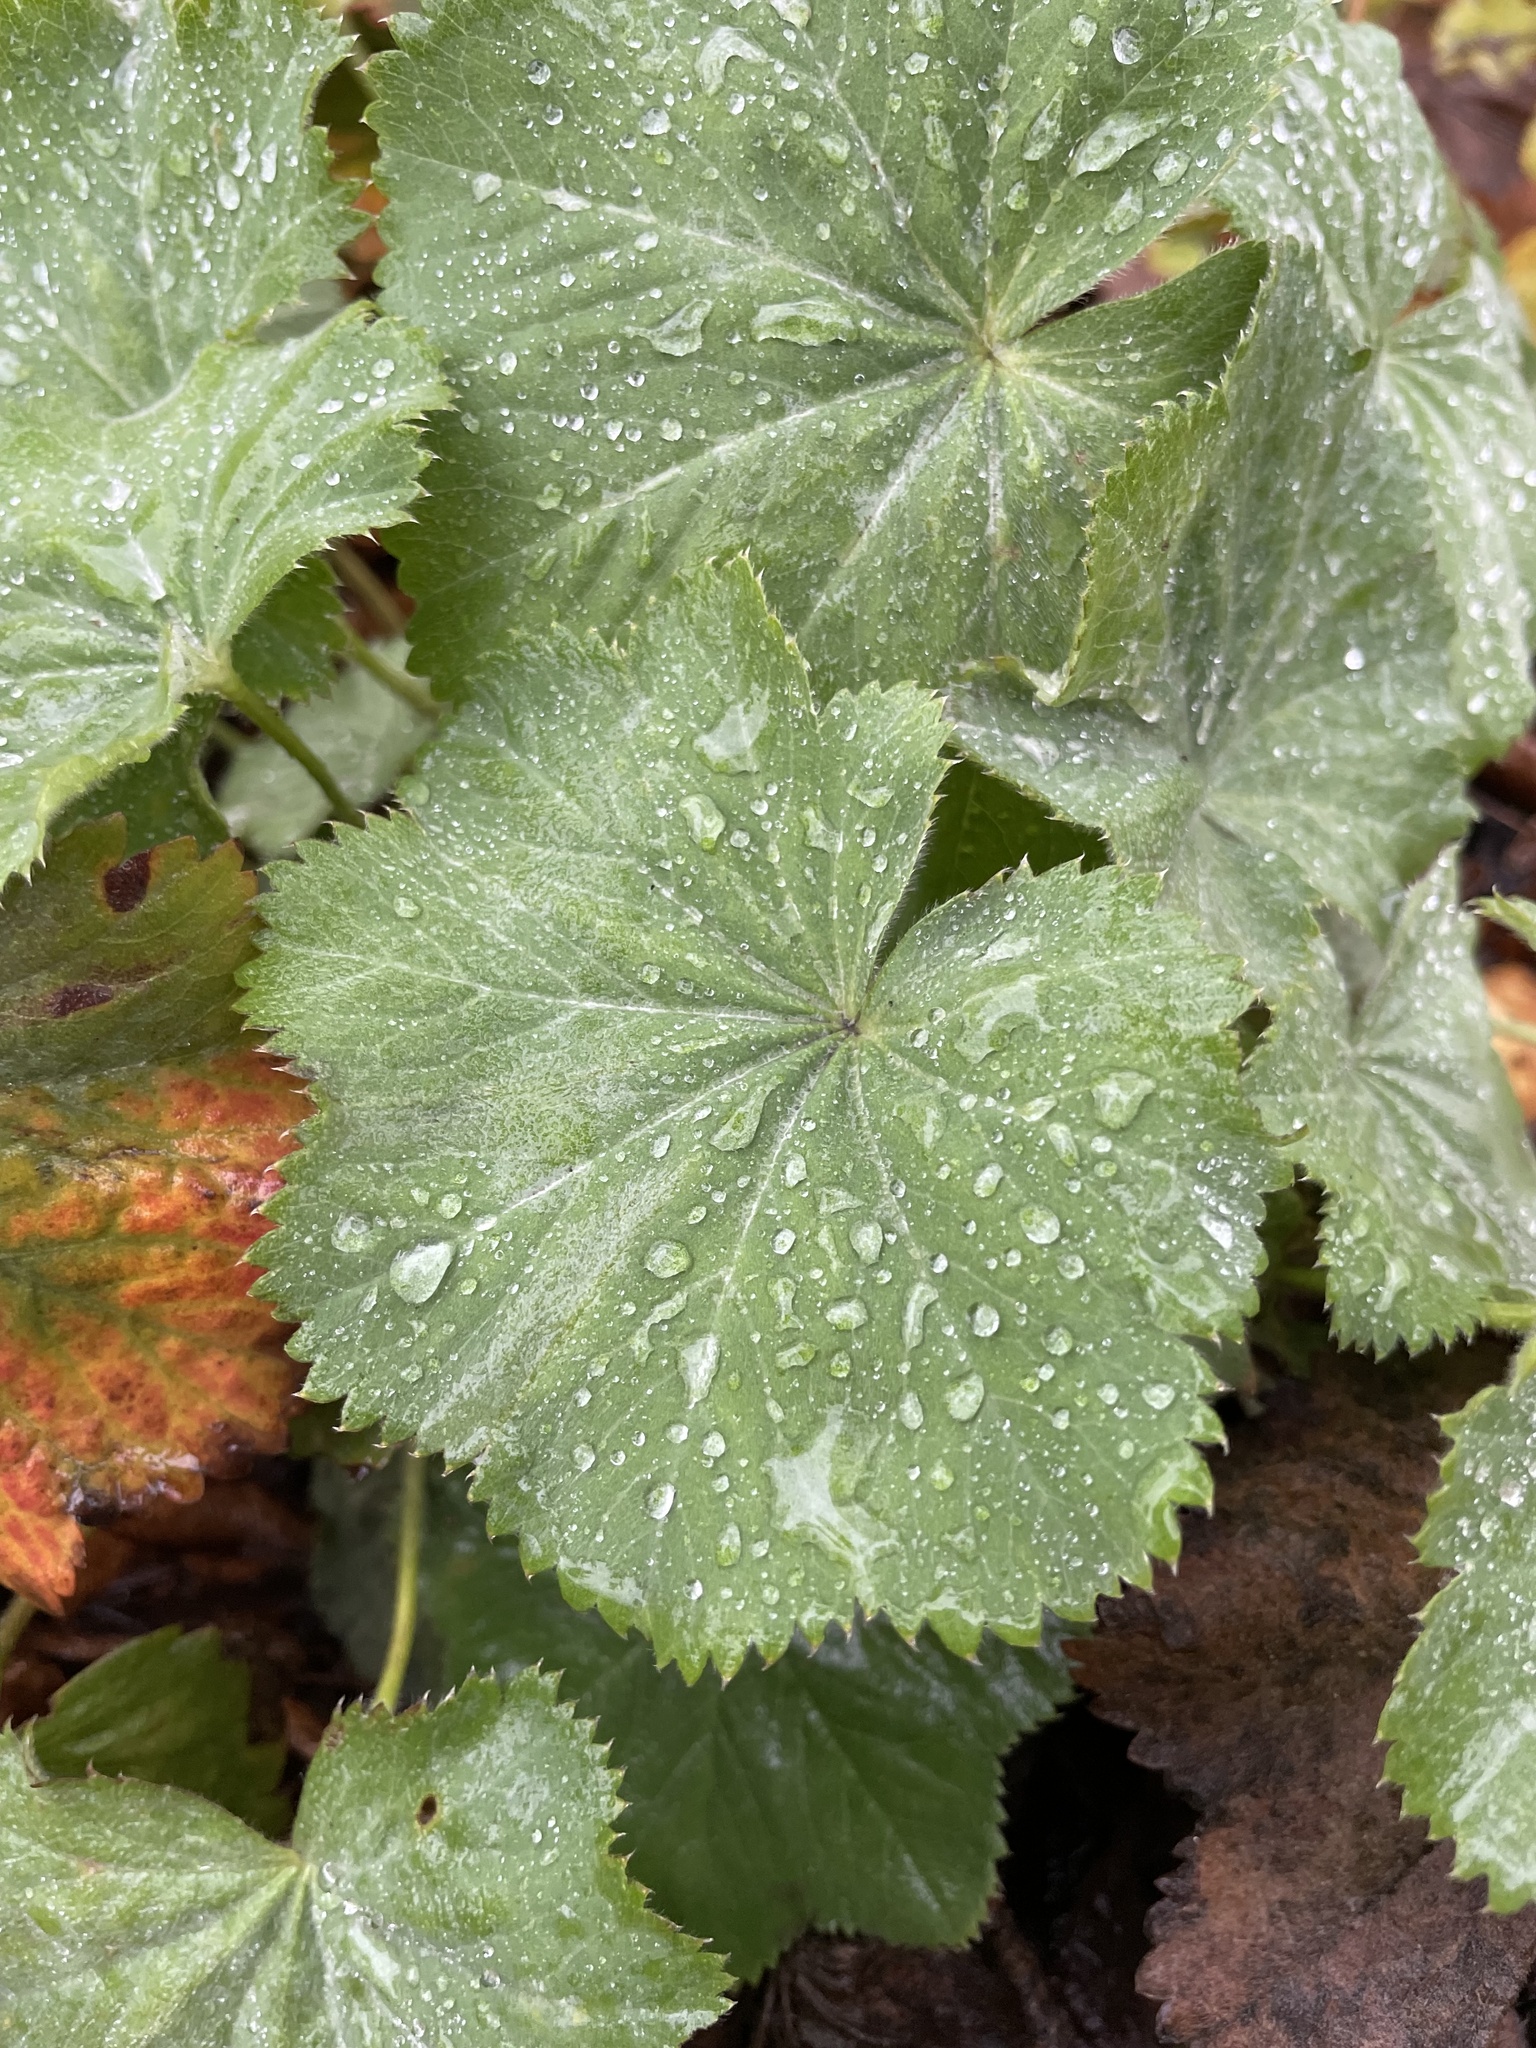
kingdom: Plantae
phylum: Tracheophyta
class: Magnoliopsida
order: Rosales
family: Rosaceae
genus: Alchemilla
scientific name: Alchemilla mollis
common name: Lady's-mantle
